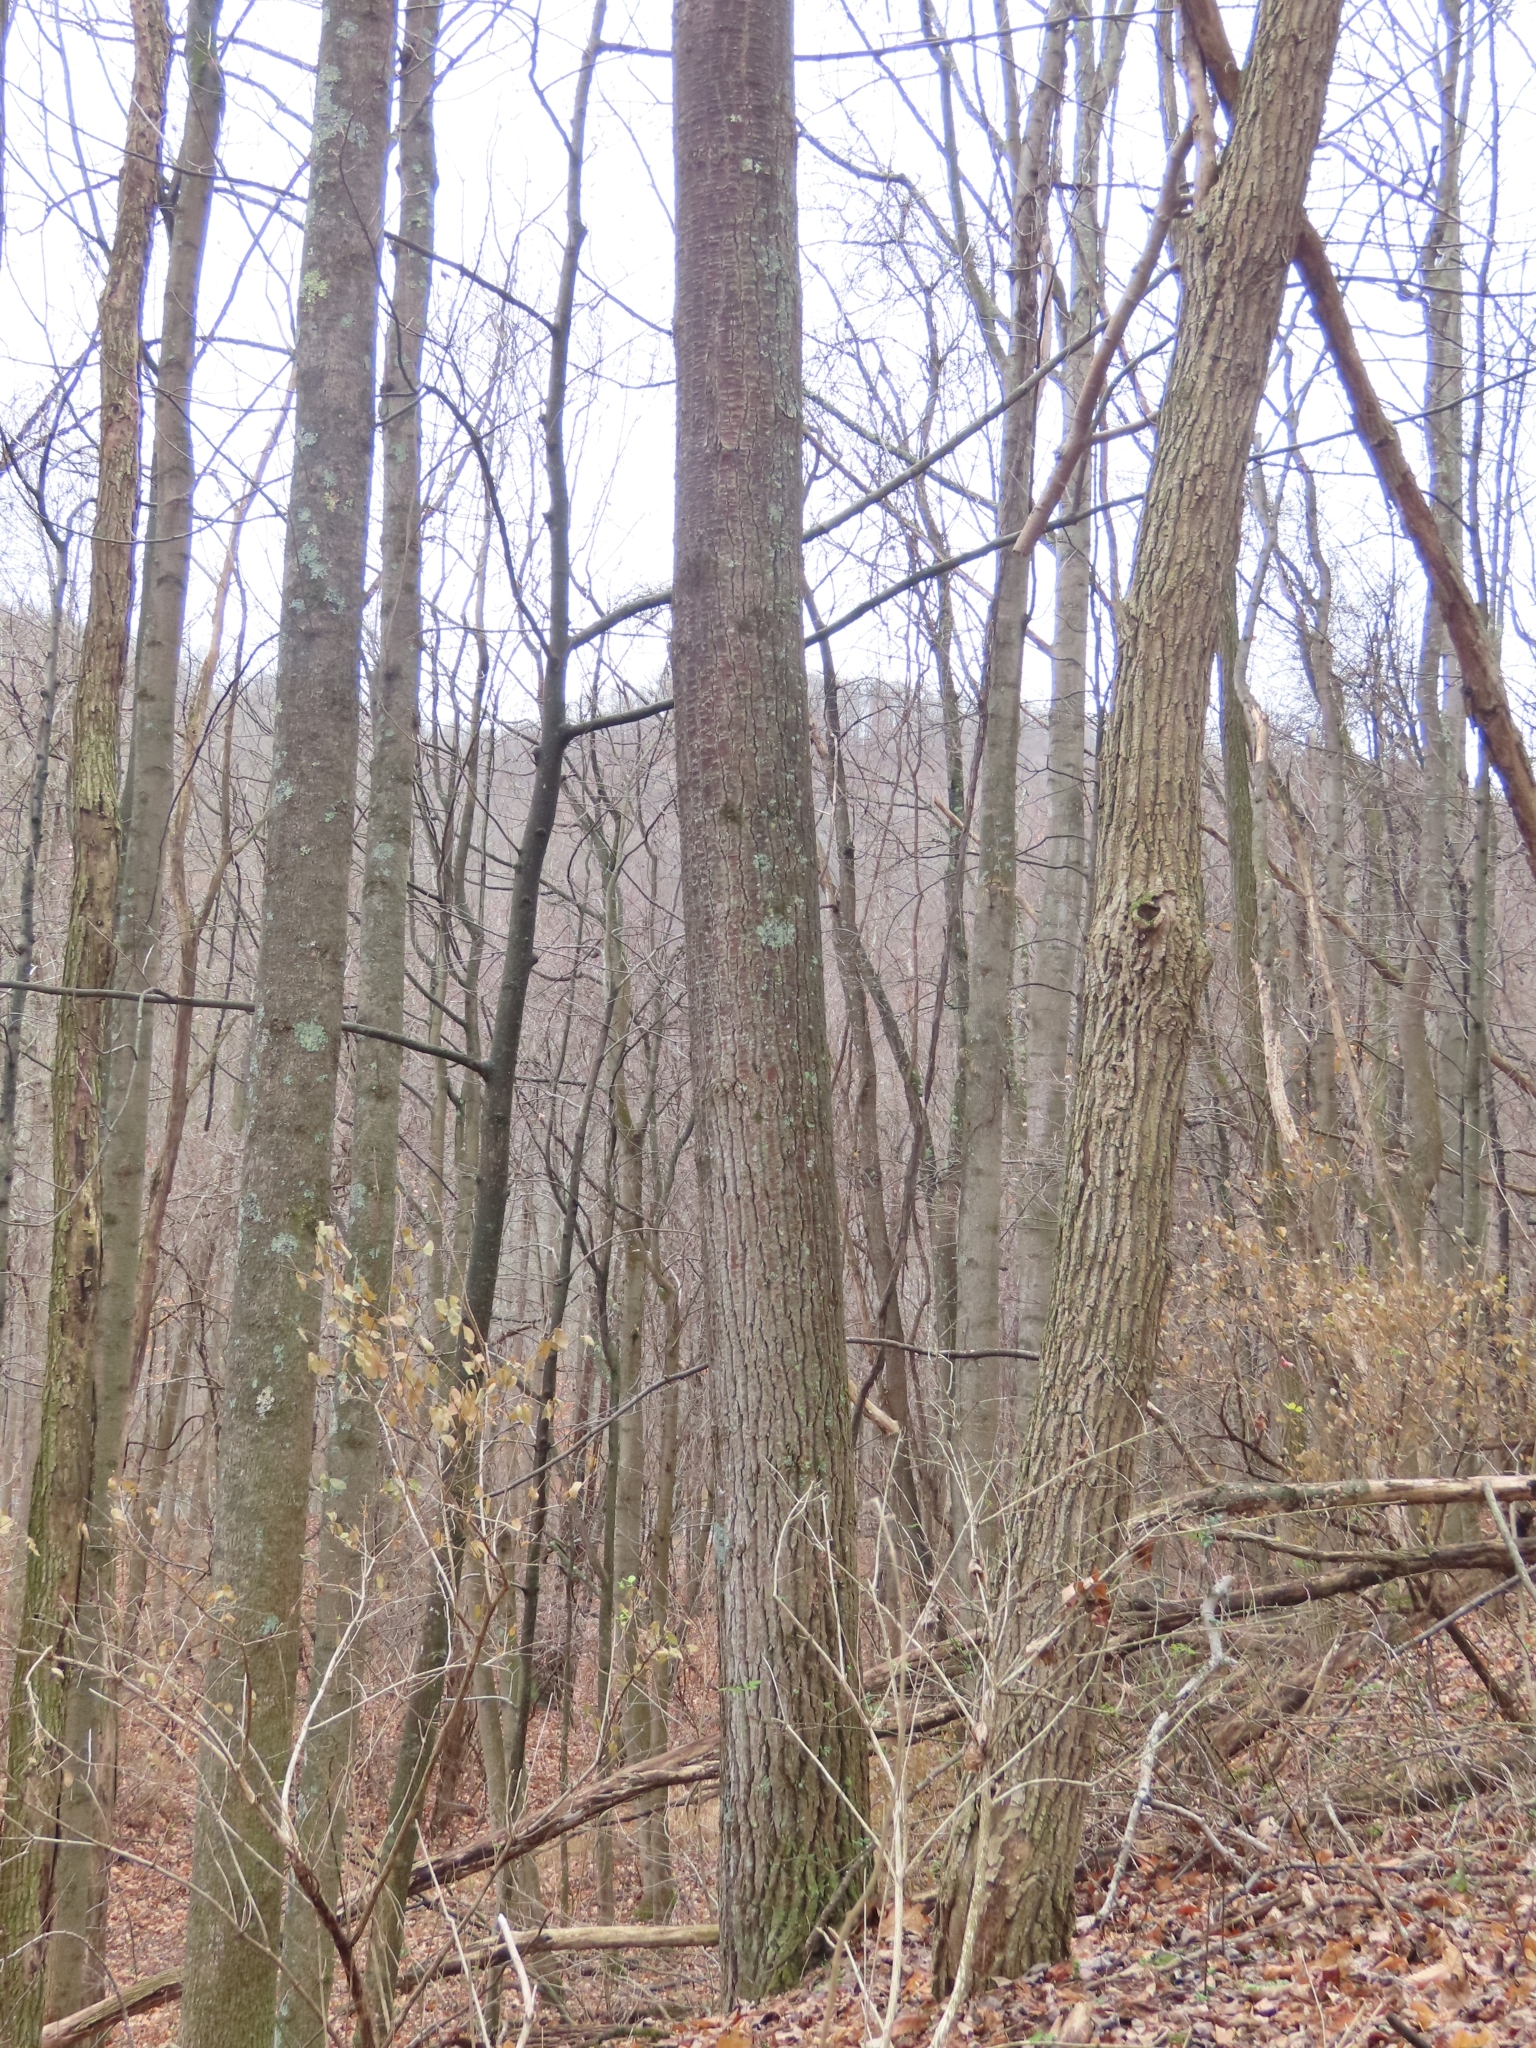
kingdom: Plantae
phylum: Tracheophyta
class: Magnoliopsida
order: Malpighiales
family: Salicaceae
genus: Populus
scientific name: Populus deltoides
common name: Eastern cottonwood
